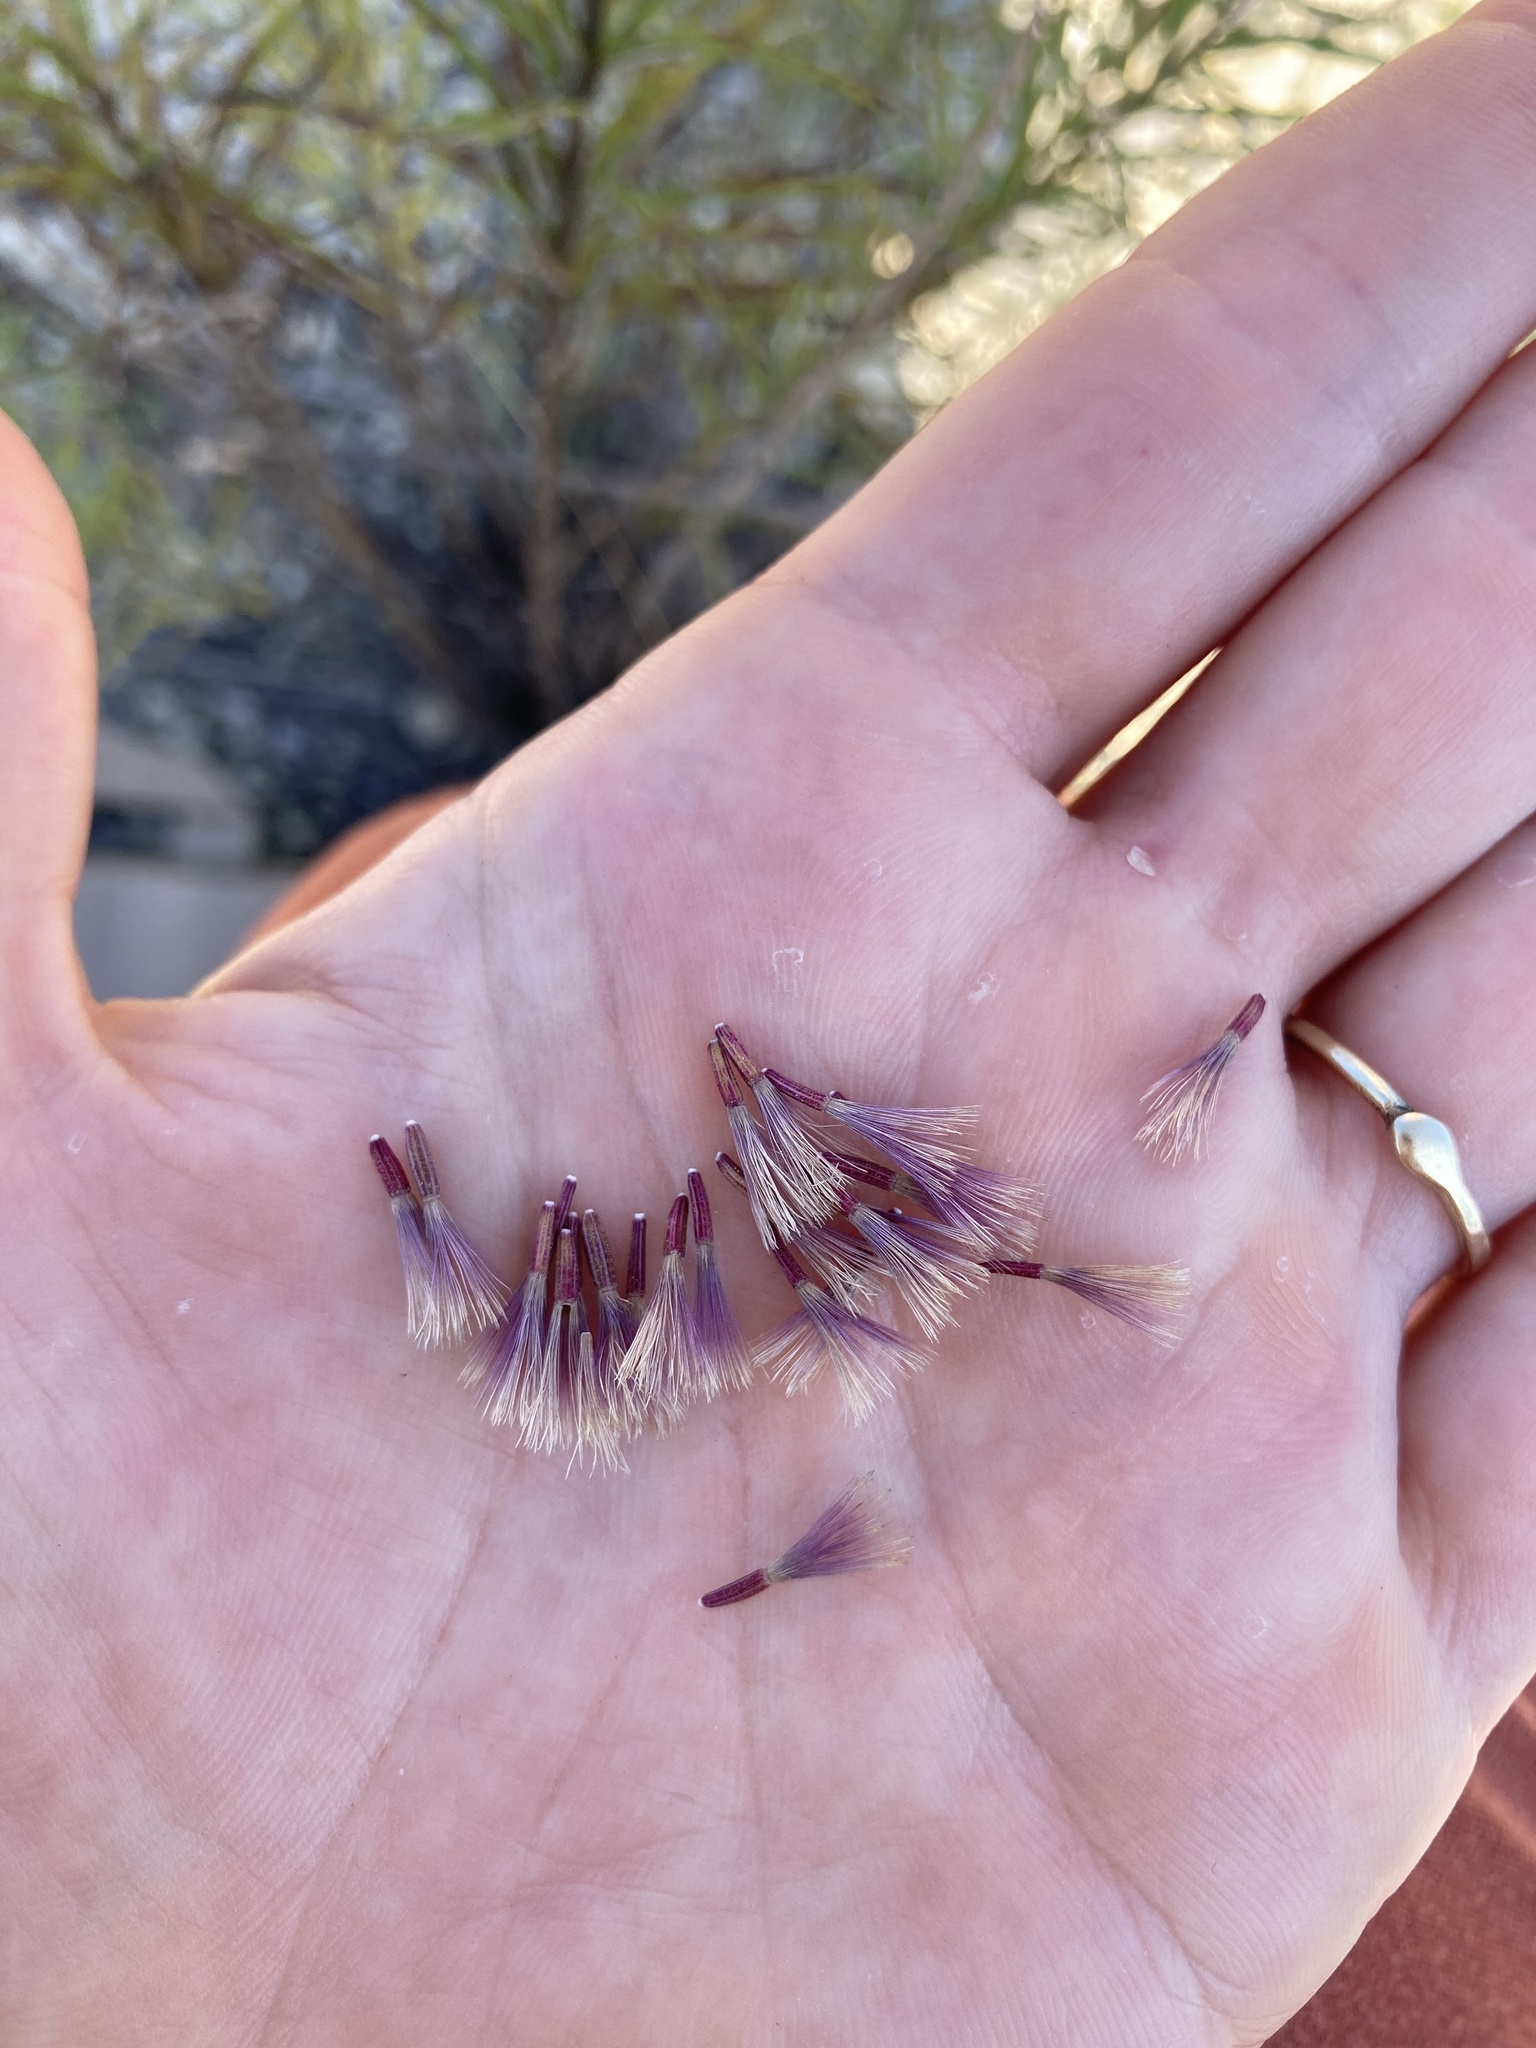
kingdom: Plantae
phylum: Tracheophyta
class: Magnoliopsida
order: Asterales
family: Asteraceae
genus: Vernonia
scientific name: Vernonia lindheimeri
